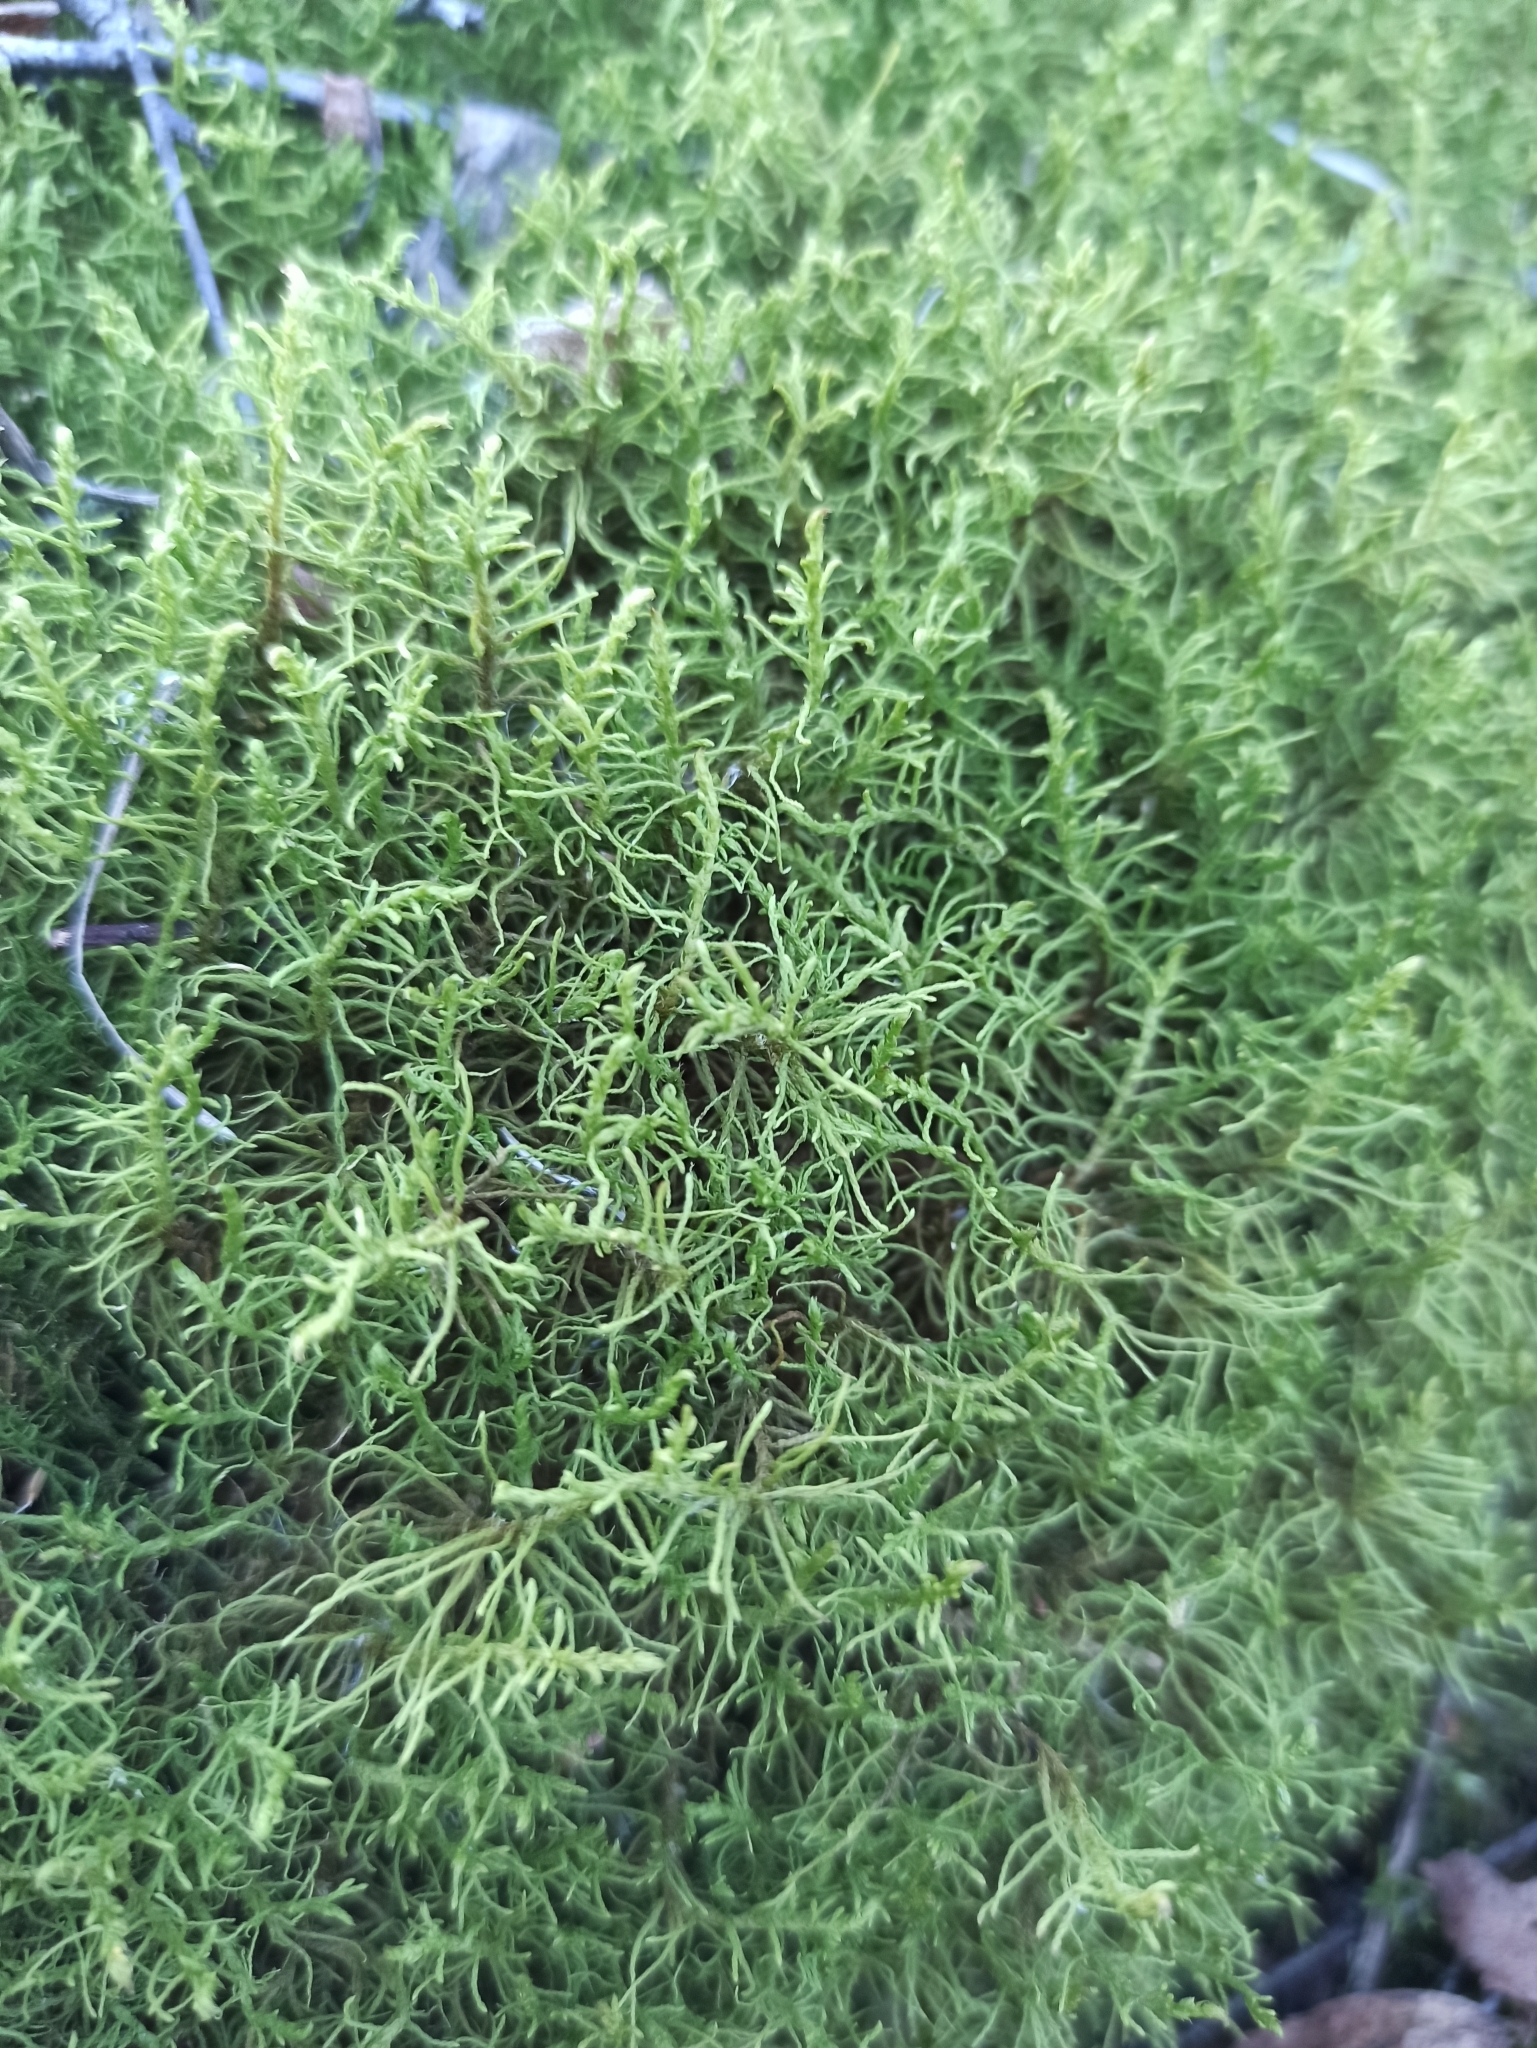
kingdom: Plantae
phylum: Bryophyta
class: Bryopsida
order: Hypnales
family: Thuidiaceae
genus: Abietinella
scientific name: Abietinella abietina
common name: Wiry fern moss
